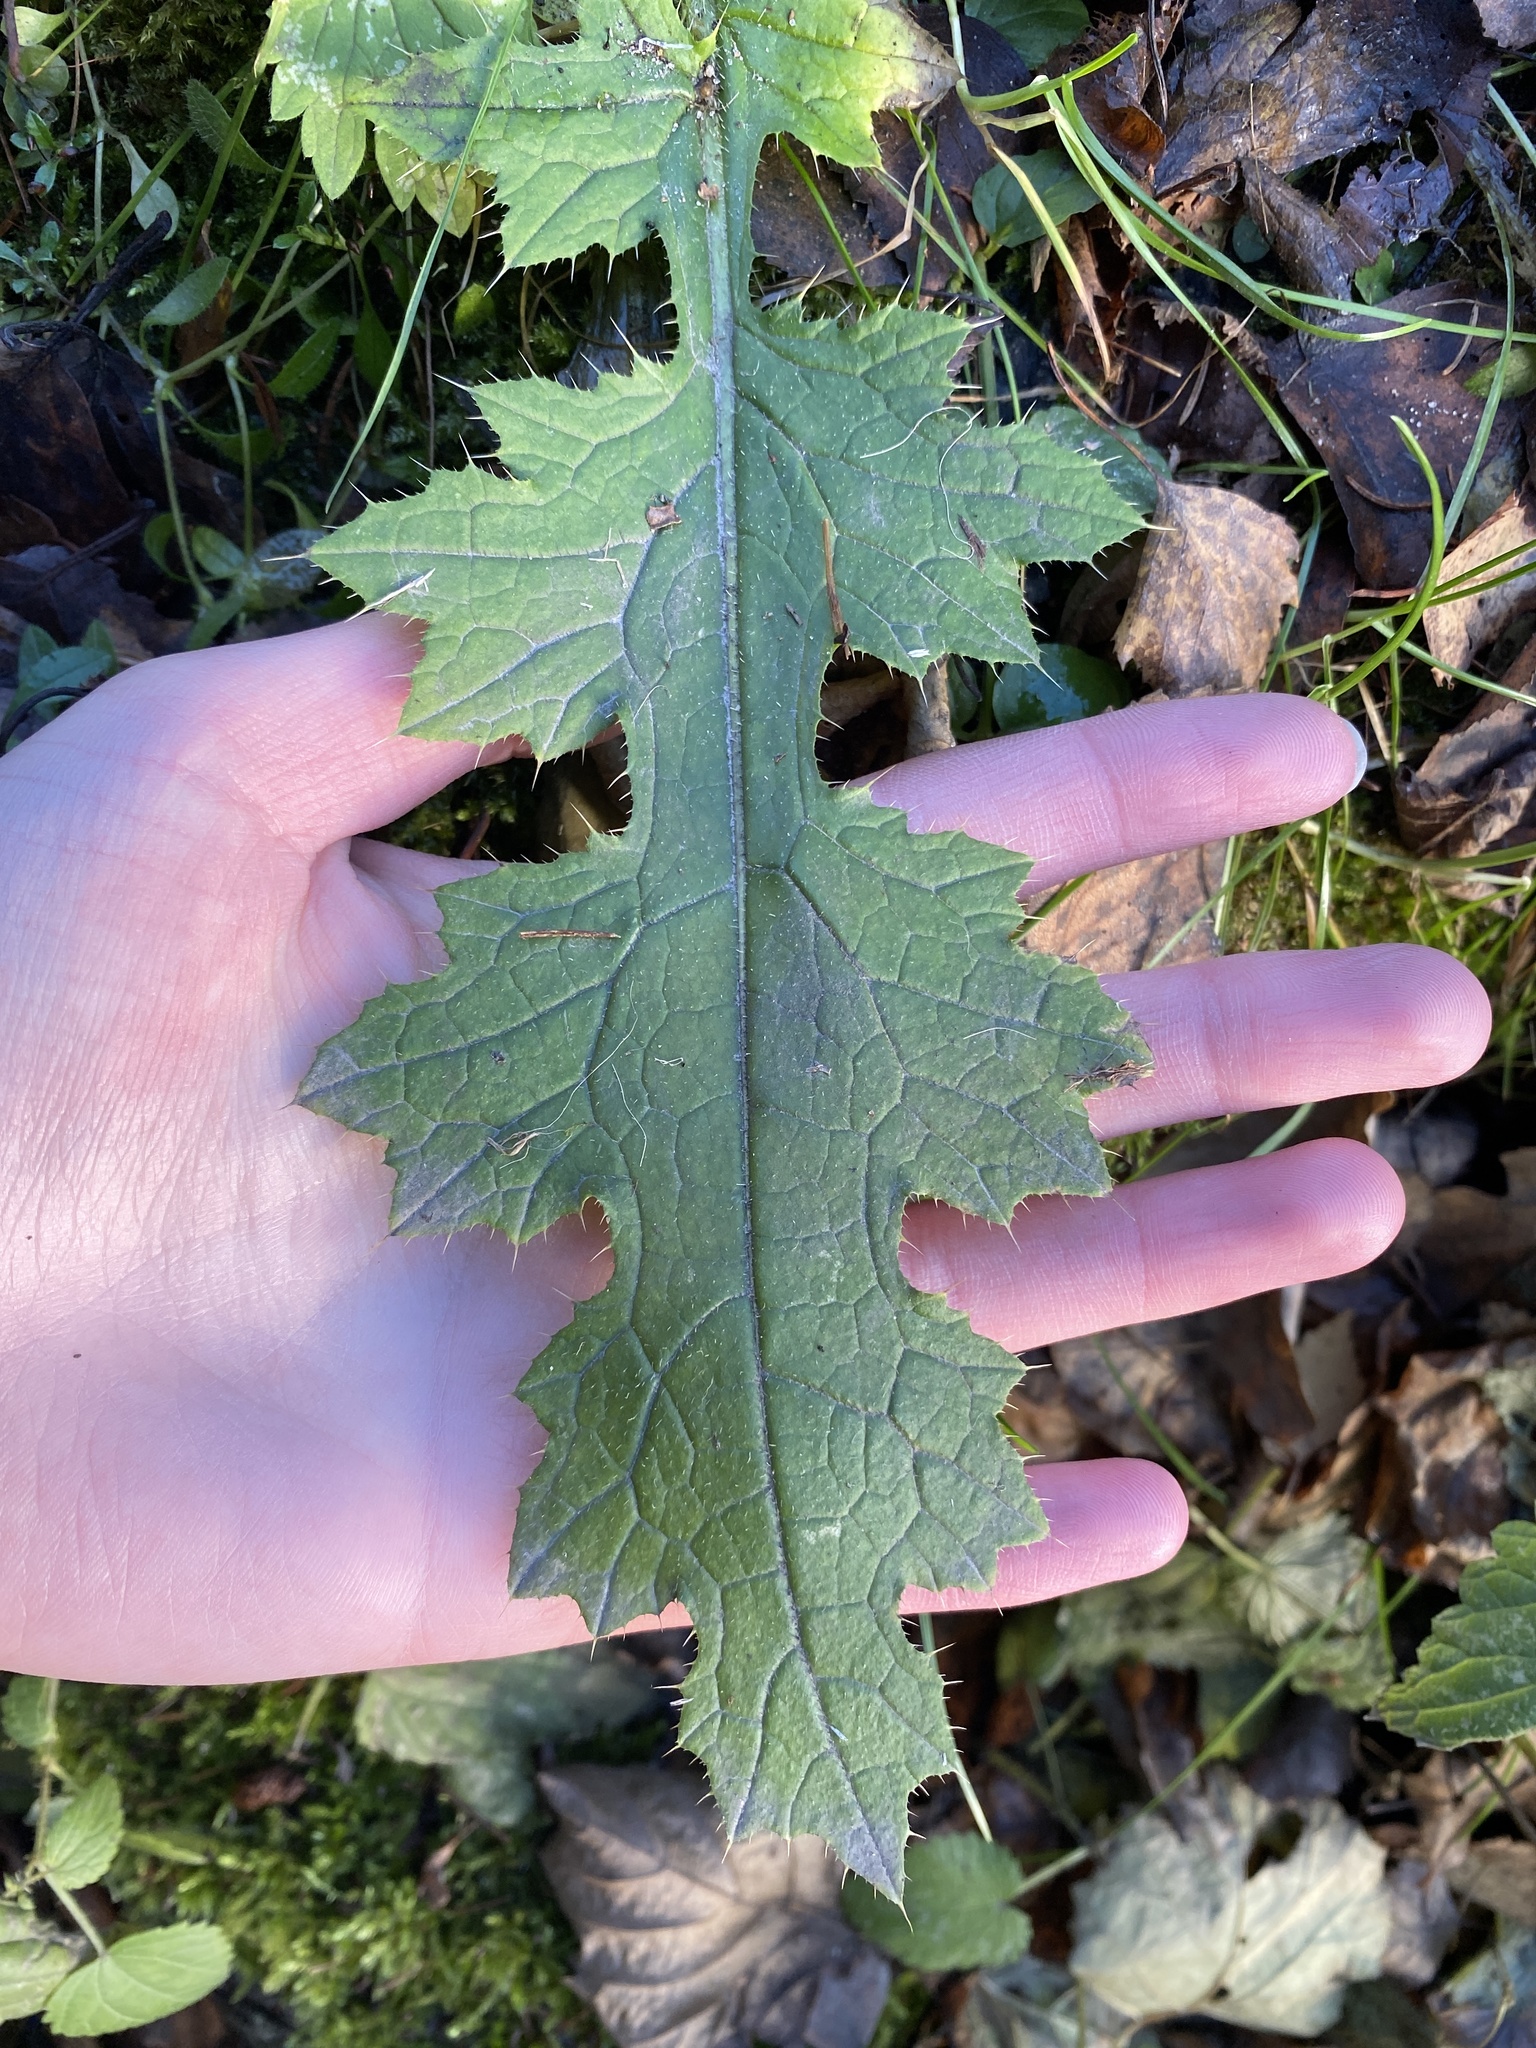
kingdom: Plantae
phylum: Tracheophyta
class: Magnoliopsida
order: Asterales
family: Asteraceae
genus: Carduus
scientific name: Carduus crispus
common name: Welted thistle
